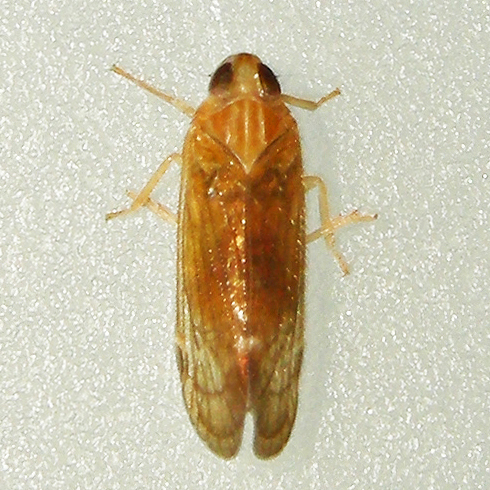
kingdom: Animalia
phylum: Arthropoda
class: Insecta
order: Hemiptera
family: Cixiidae
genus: Haplaxius
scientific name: Haplaxius pictifrons
